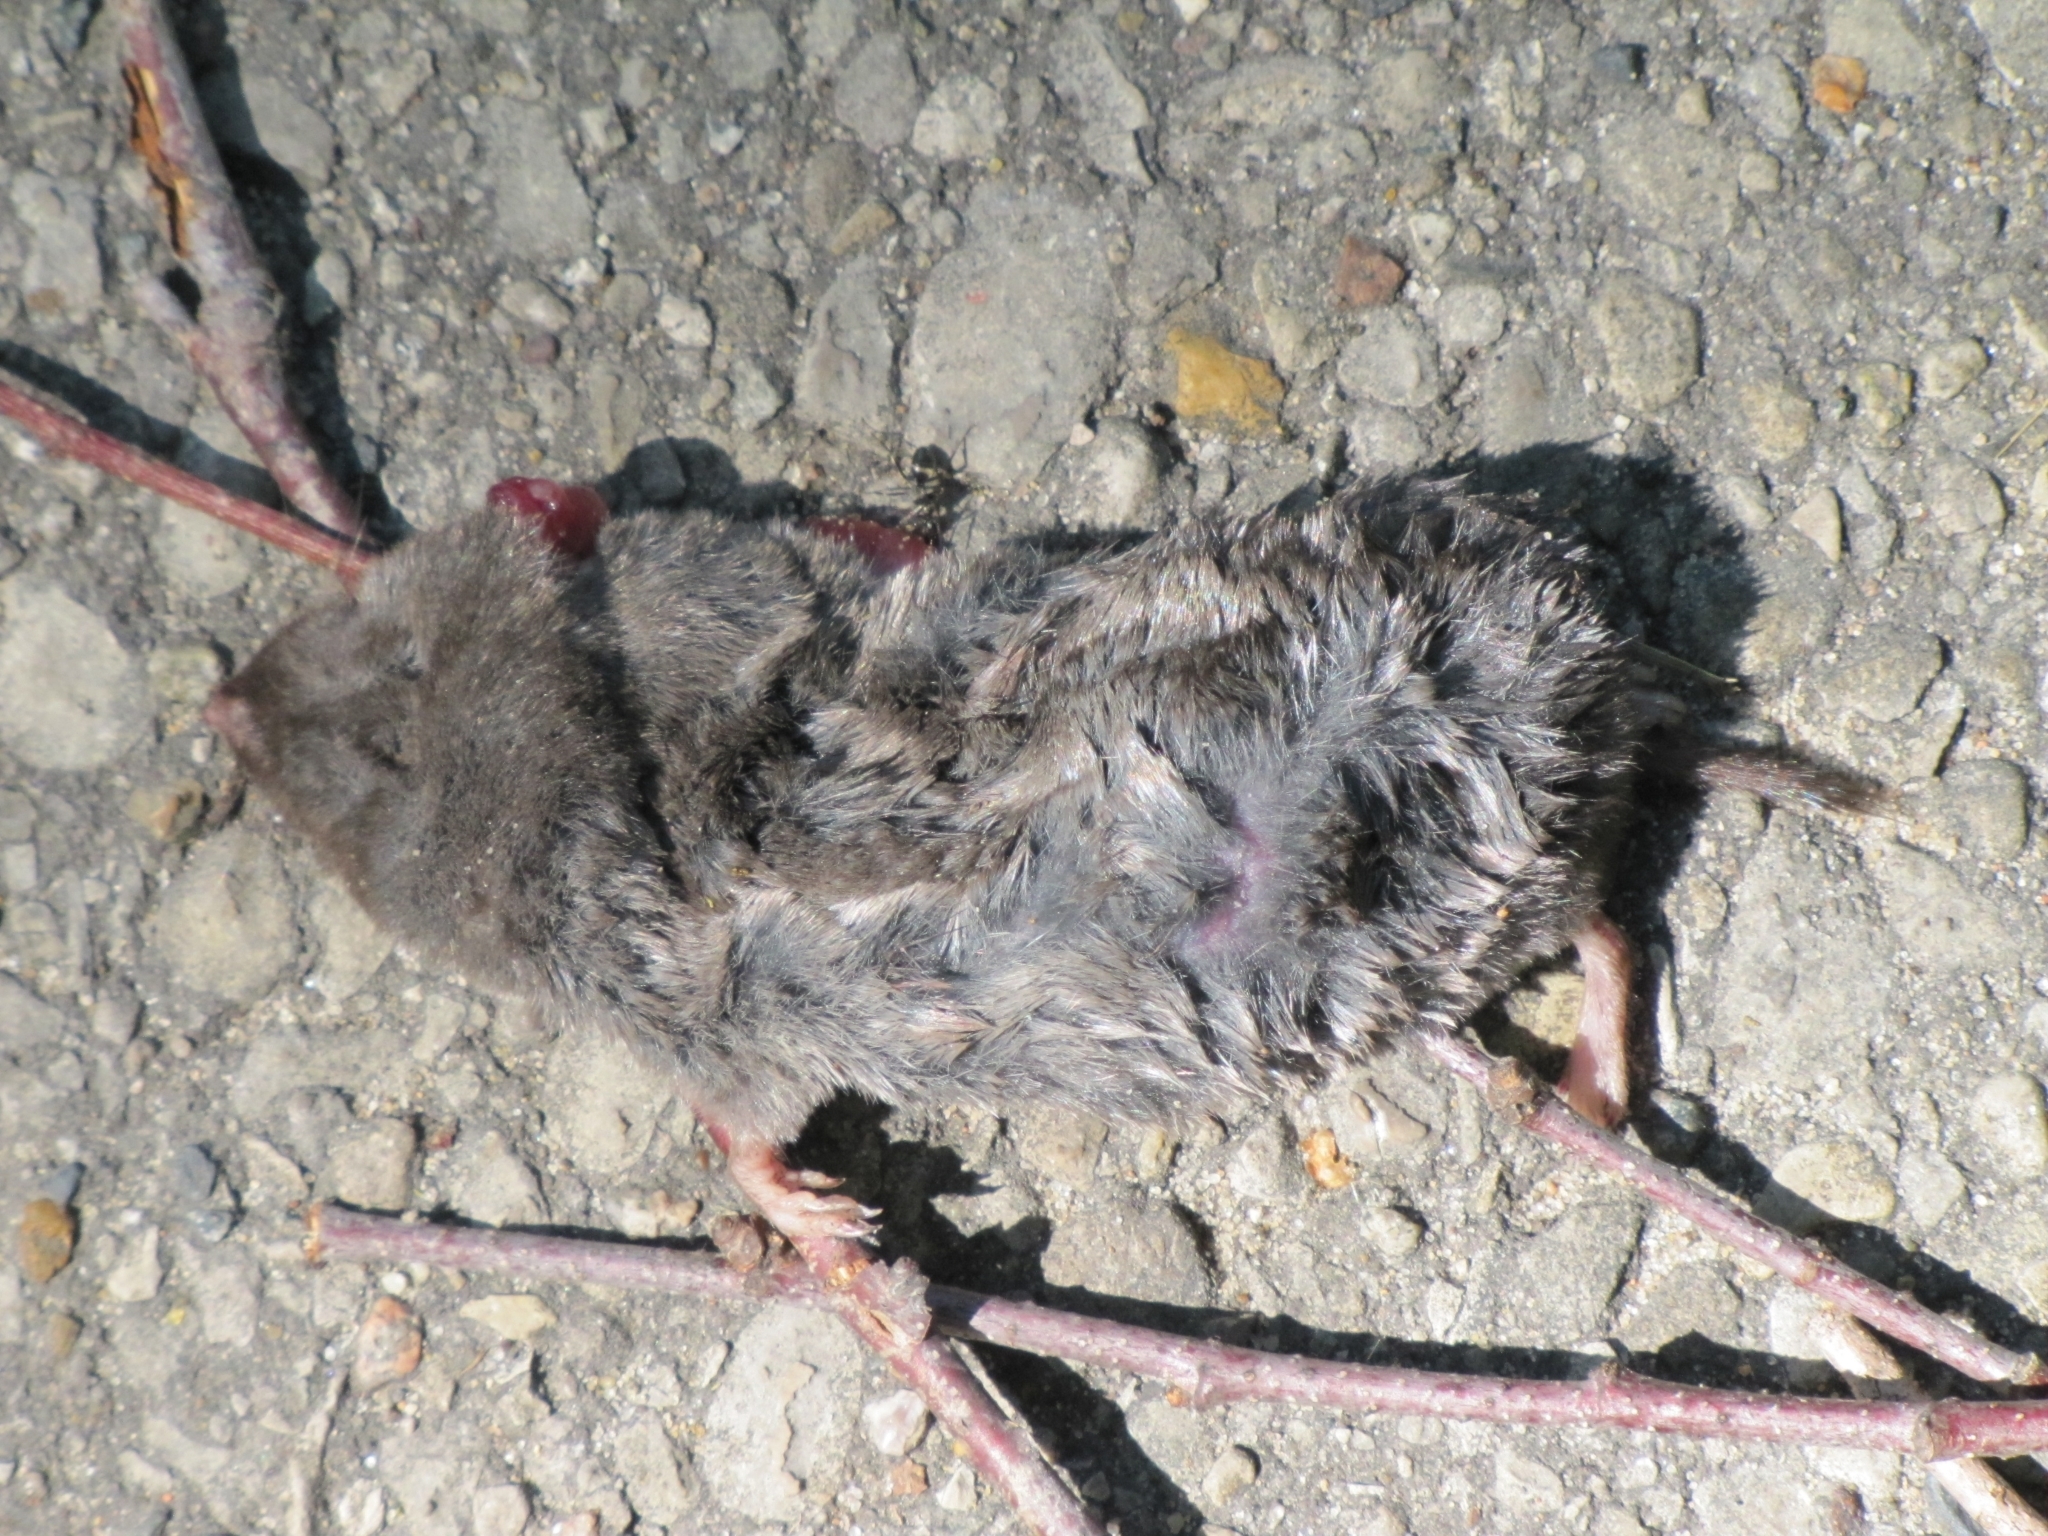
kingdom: Animalia
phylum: Chordata
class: Mammalia
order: Soricomorpha
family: Soricidae
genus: Blarina
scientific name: Blarina brevicauda
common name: Northern short-tailed shrew
